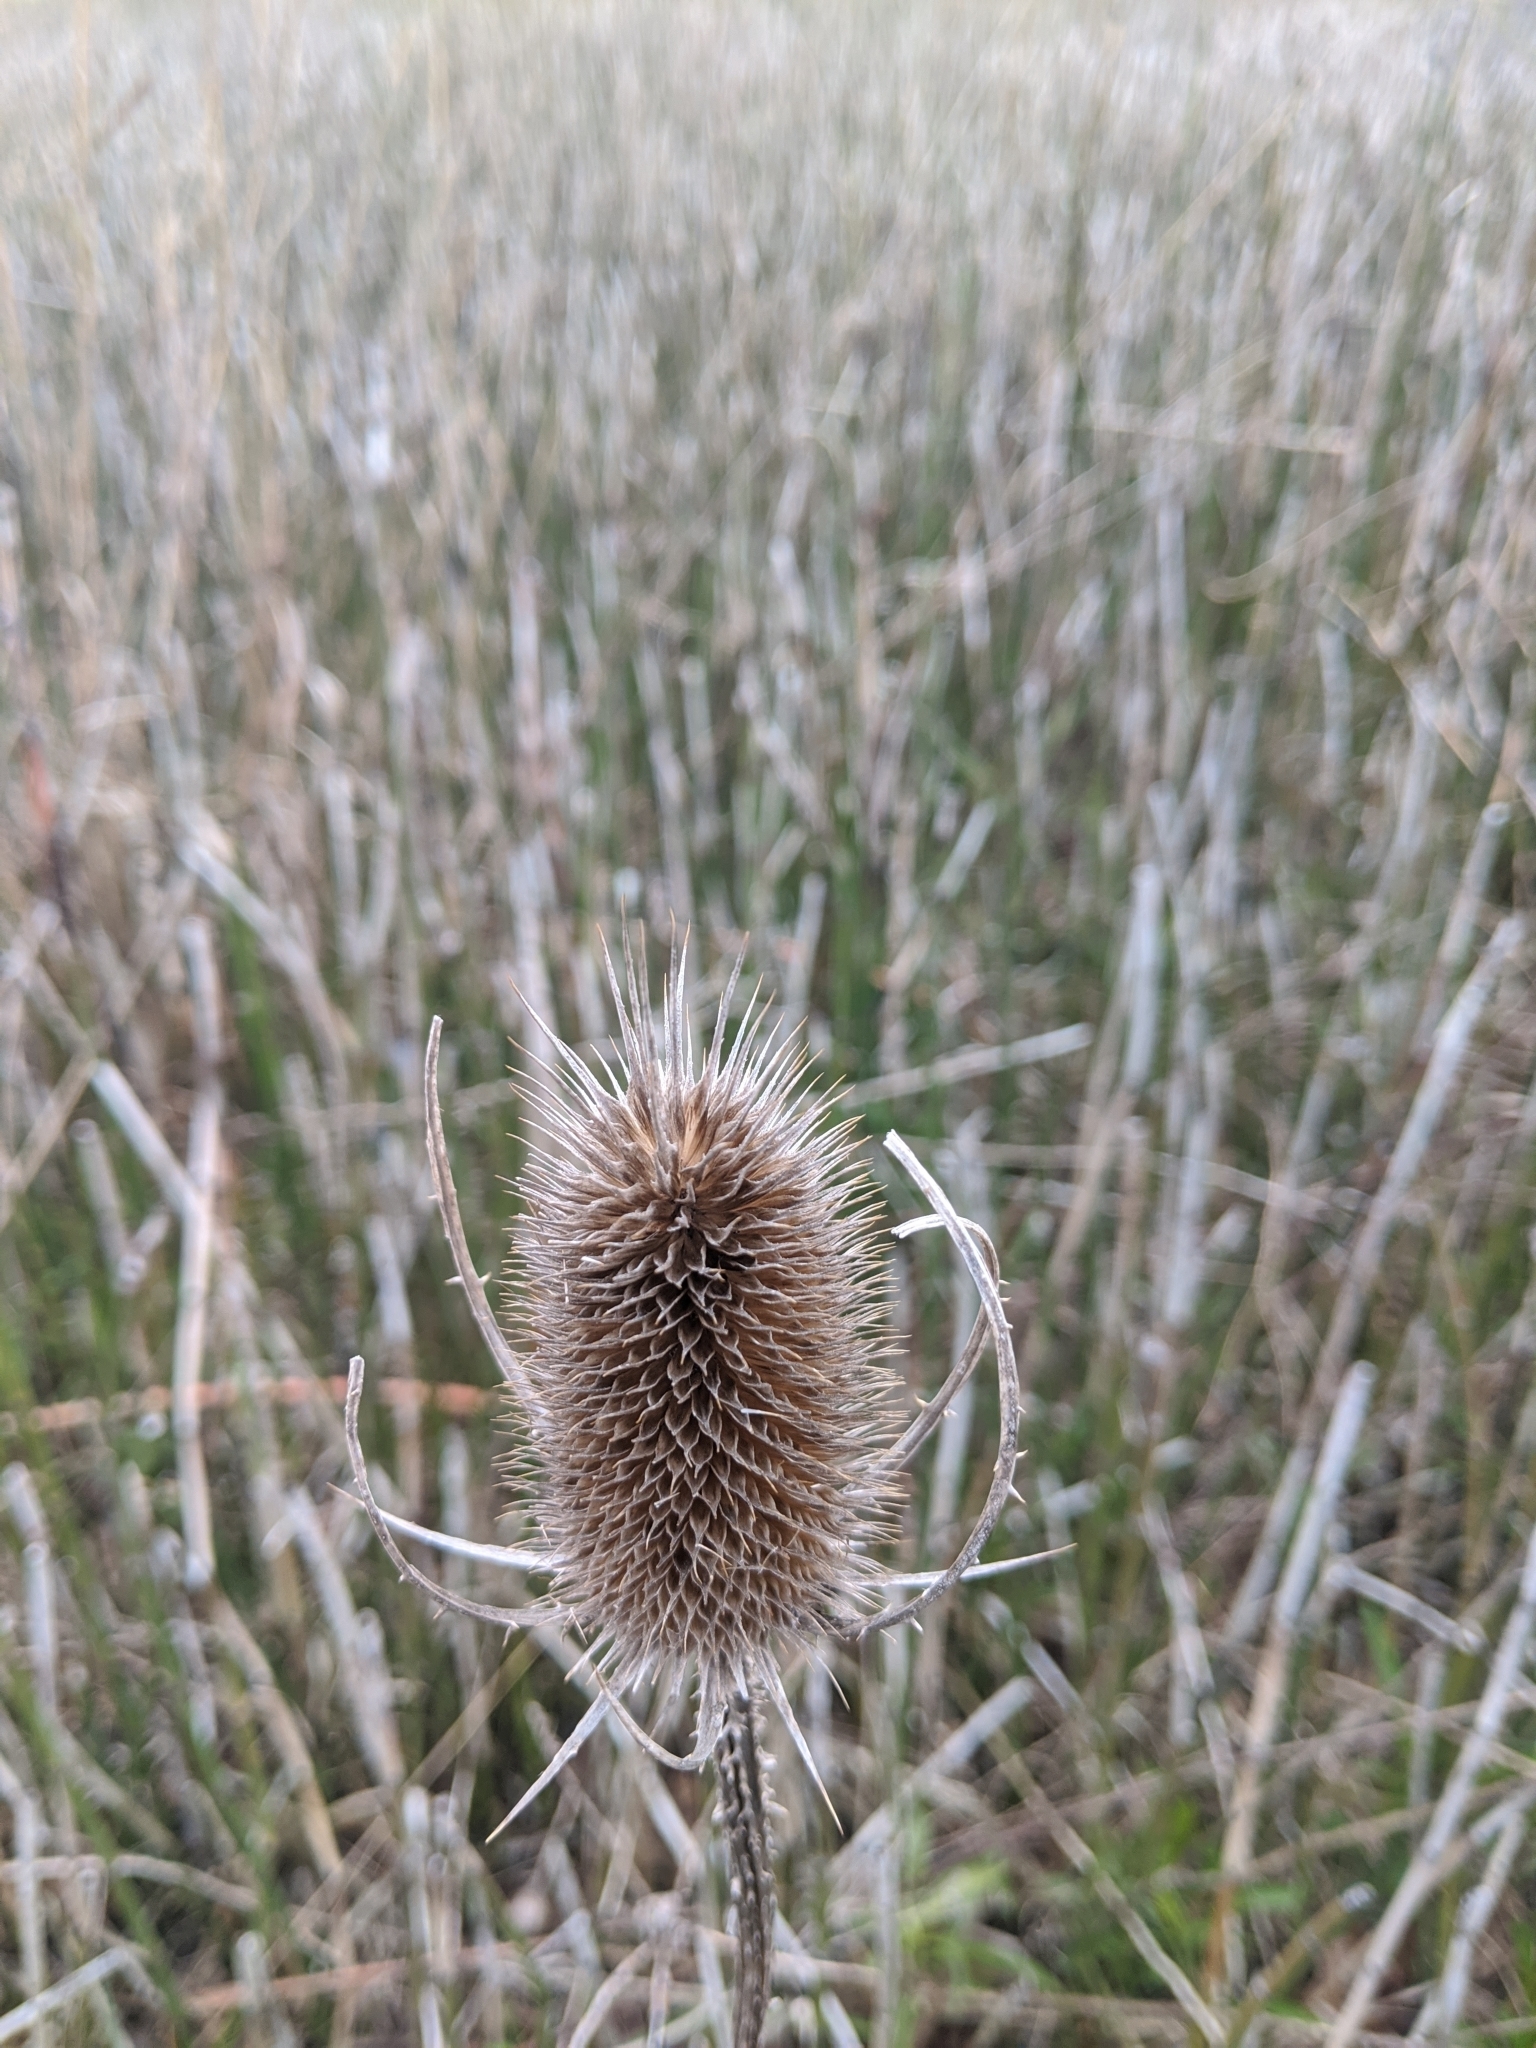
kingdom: Plantae
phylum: Tracheophyta
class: Magnoliopsida
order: Dipsacales
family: Caprifoliaceae
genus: Dipsacus
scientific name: Dipsacus fullonum
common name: Teasel
